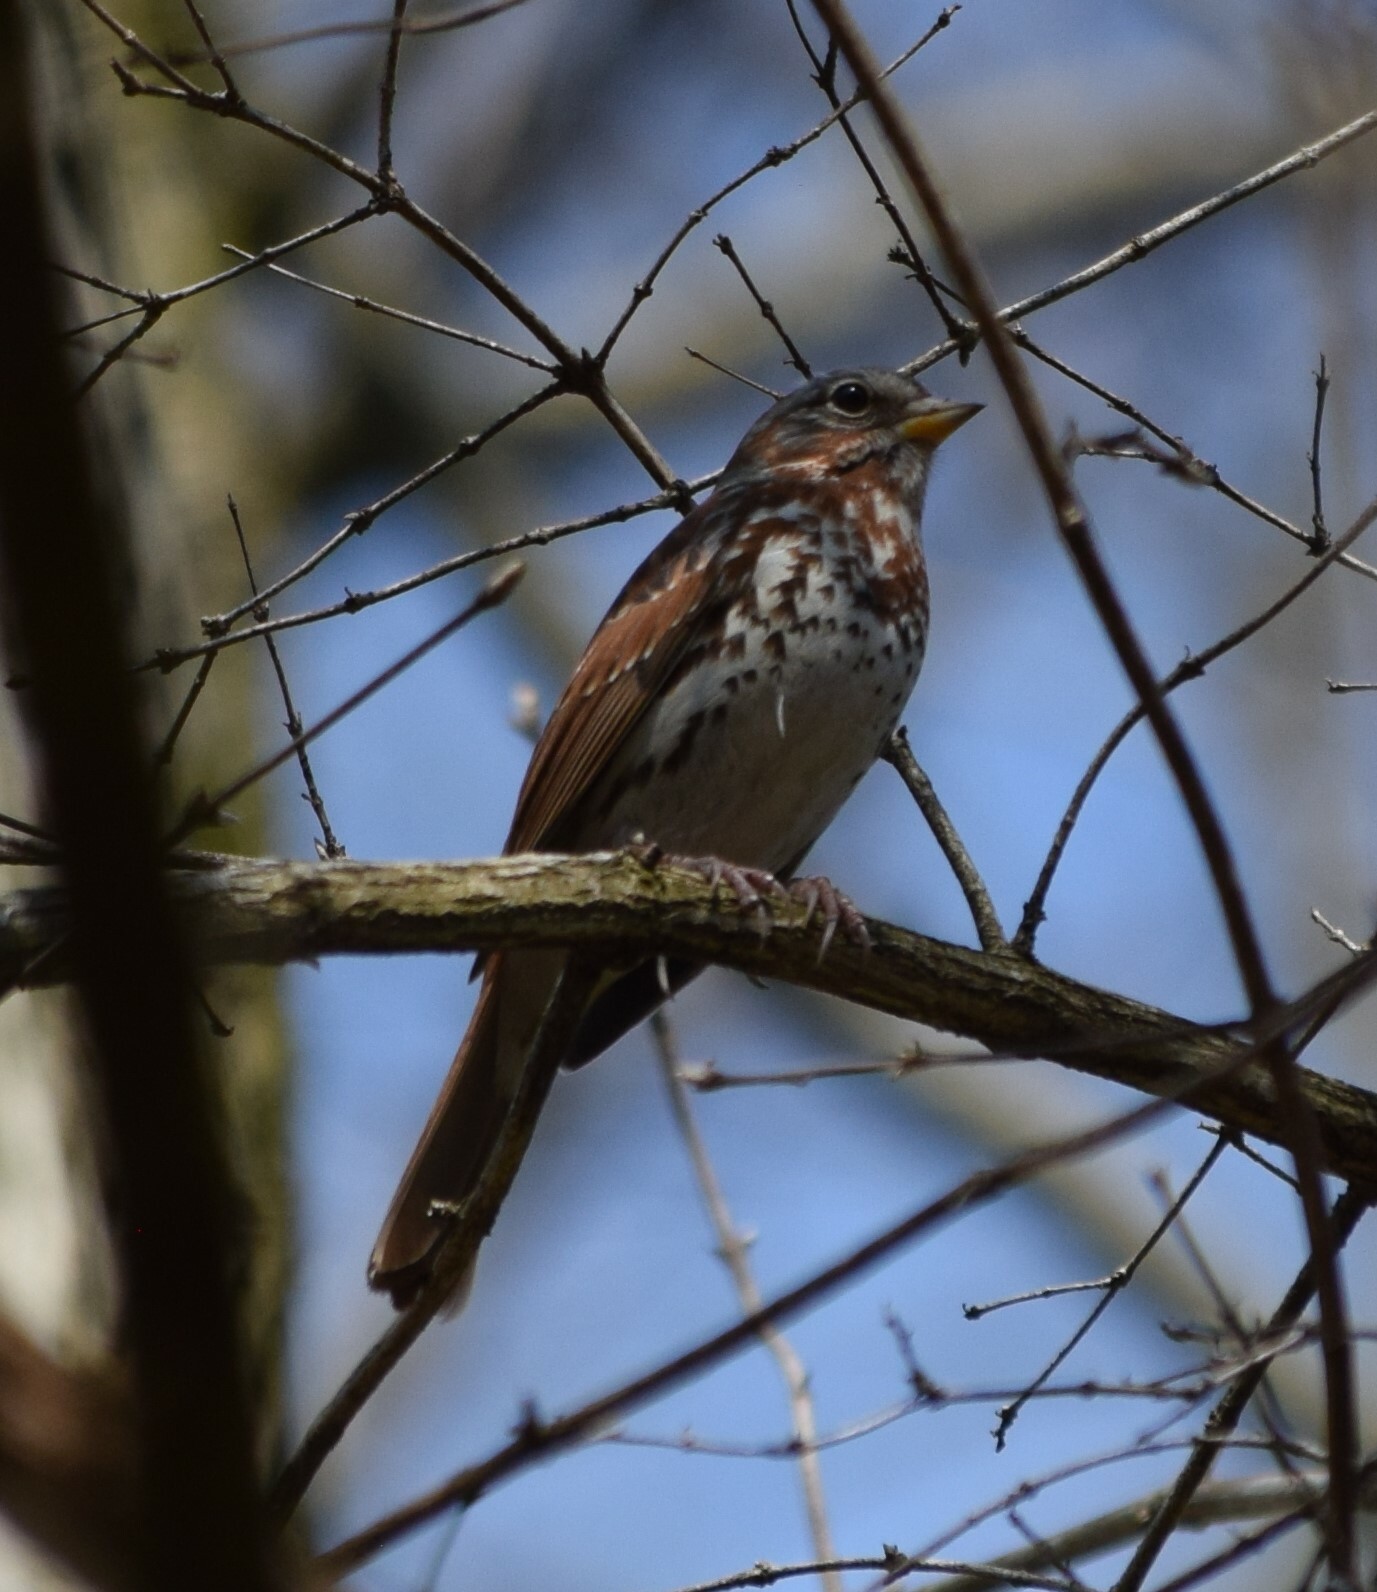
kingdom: Animalia
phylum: Chordata
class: Aves
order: Passeriformes
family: Passerellidae
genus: Passerella
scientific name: Passerella iliaca
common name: Fox sparrow
